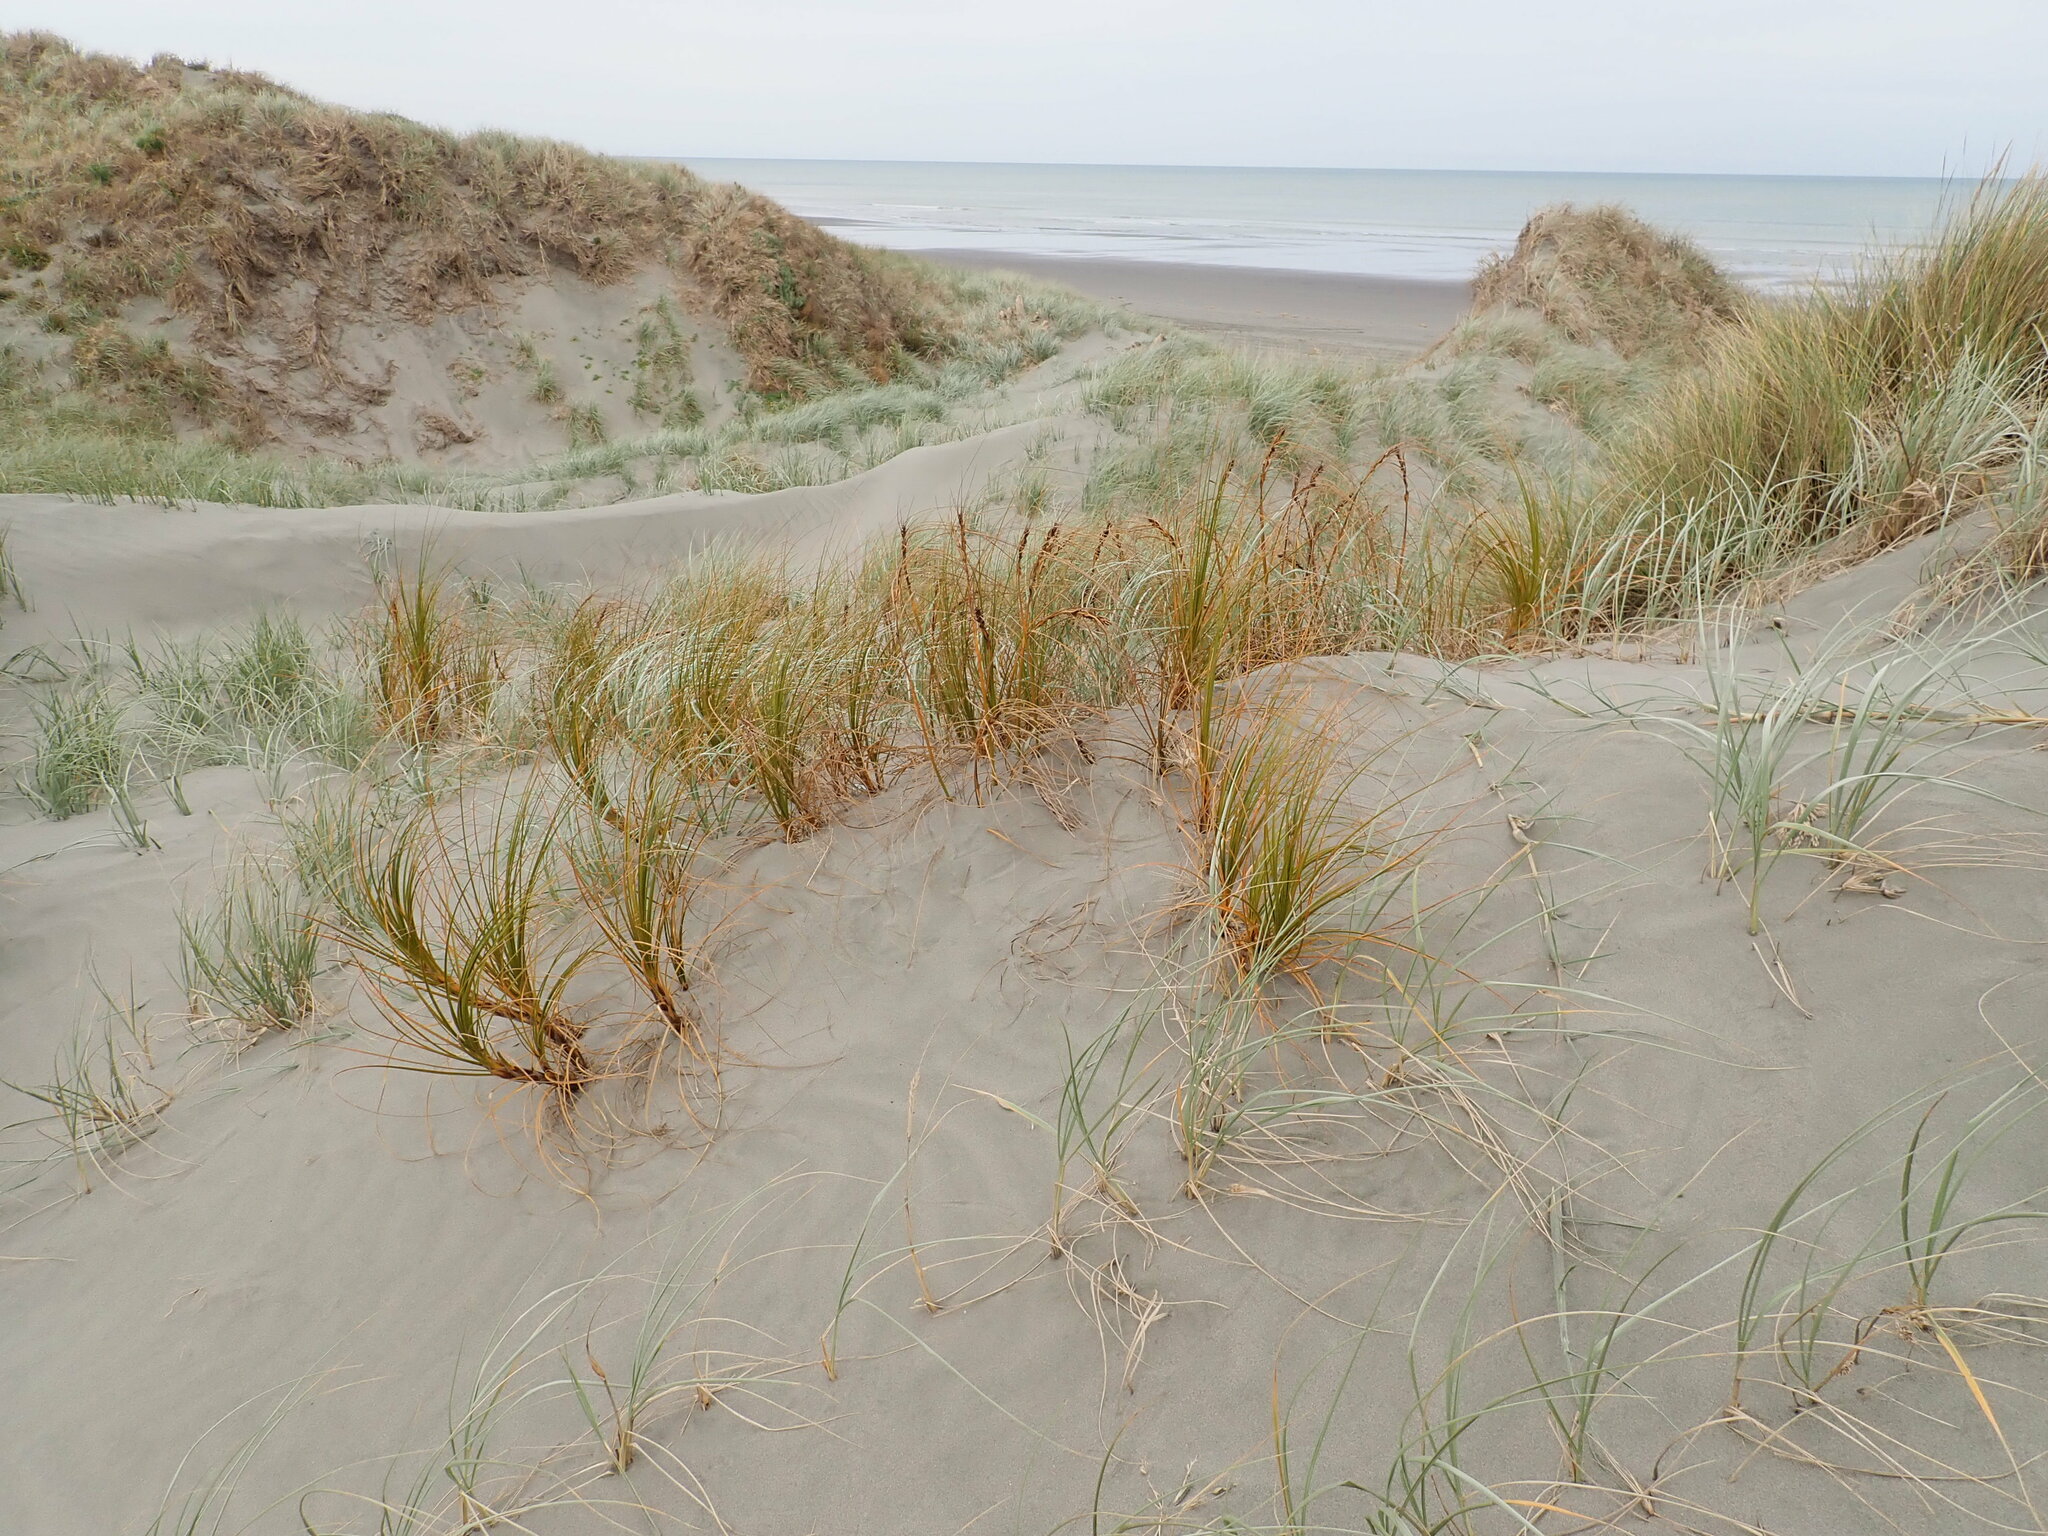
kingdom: Plantae
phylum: Tracheophyta
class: Liliopsida
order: Poales
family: Cyperaceae
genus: Ficinia
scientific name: Ficinia spiralis
